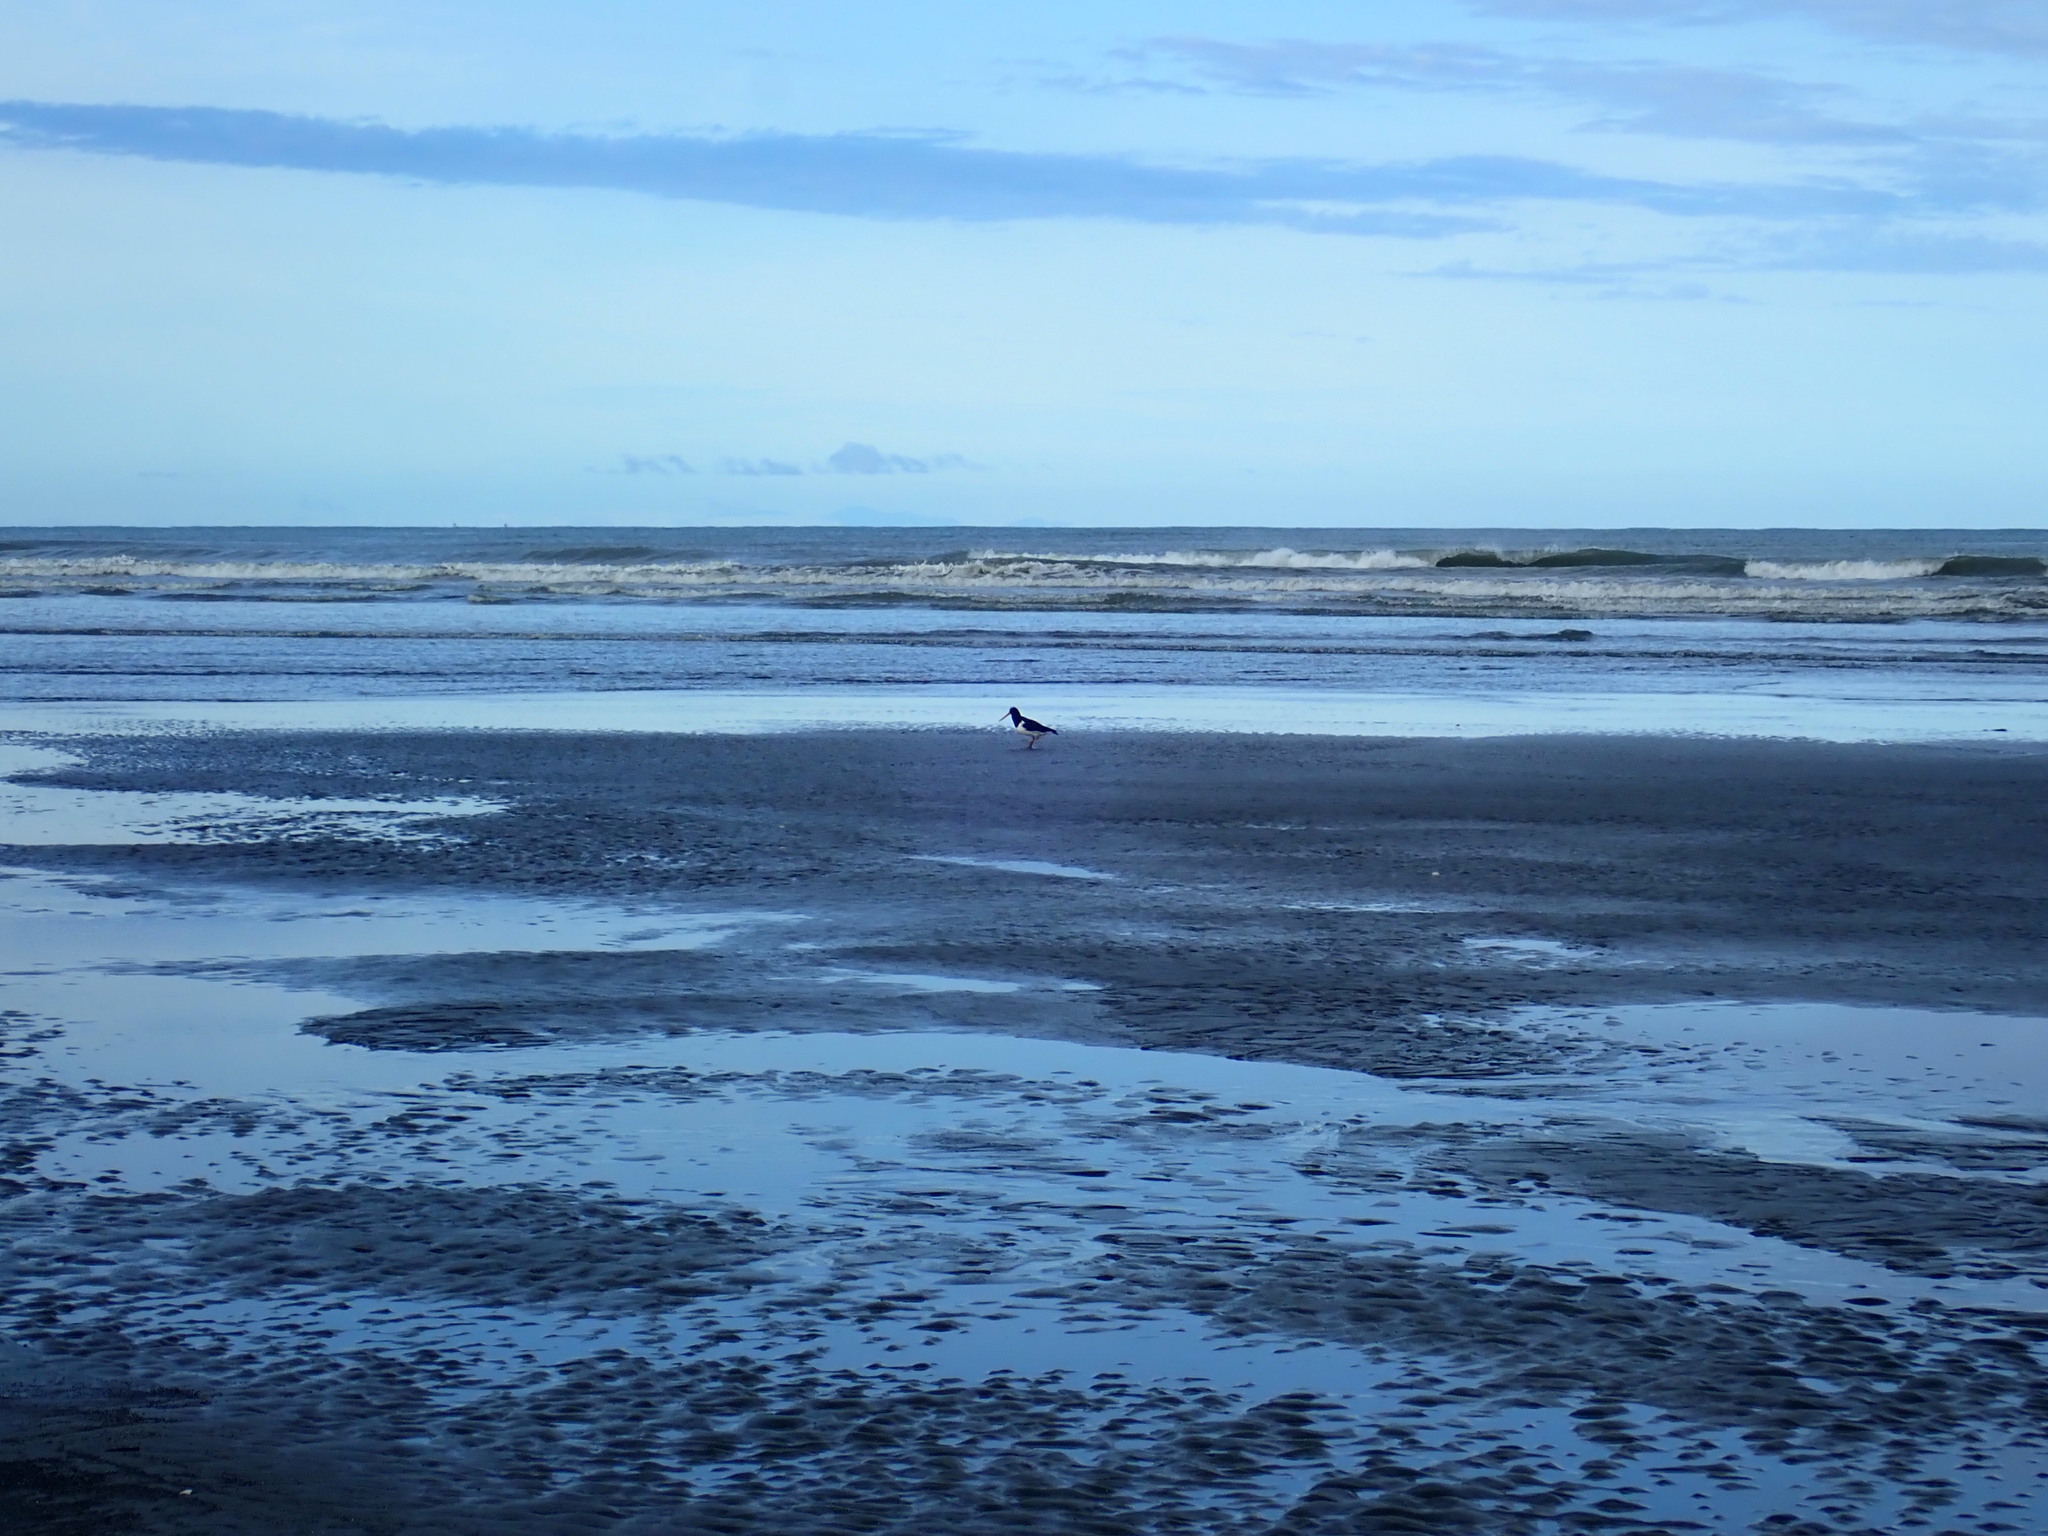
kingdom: Animalia
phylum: Chordata
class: Aves
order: Charadriiformes
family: Haematopodidae
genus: Haematopus
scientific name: Haematopus finschi
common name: South island oystercatcher
